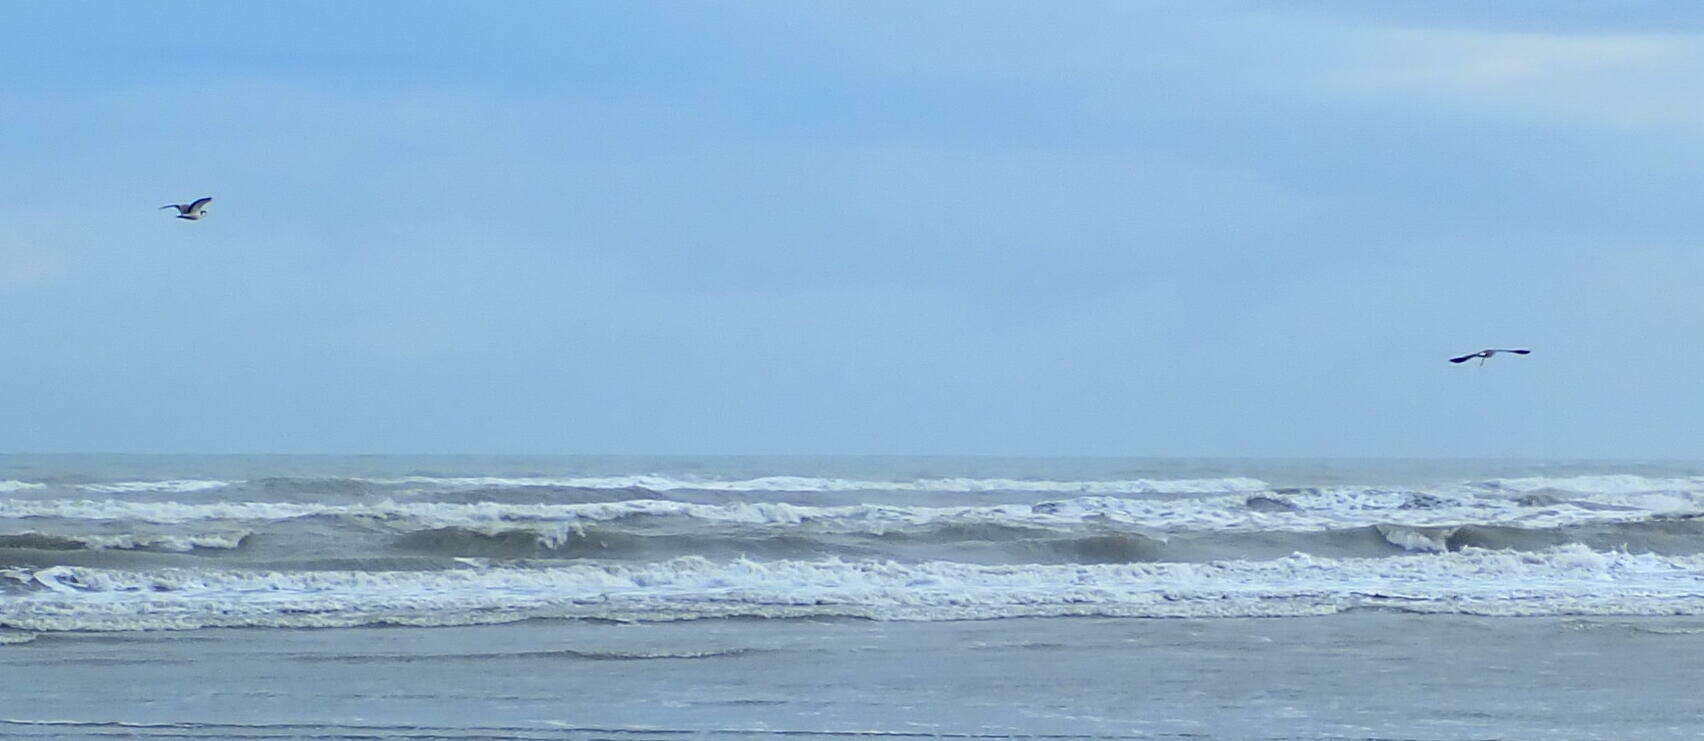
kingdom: Animalia
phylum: Chordata
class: Aves
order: Charadriiformes
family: Charadriidae
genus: Vanellus
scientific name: Vanellus miles
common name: Masked lapwing
